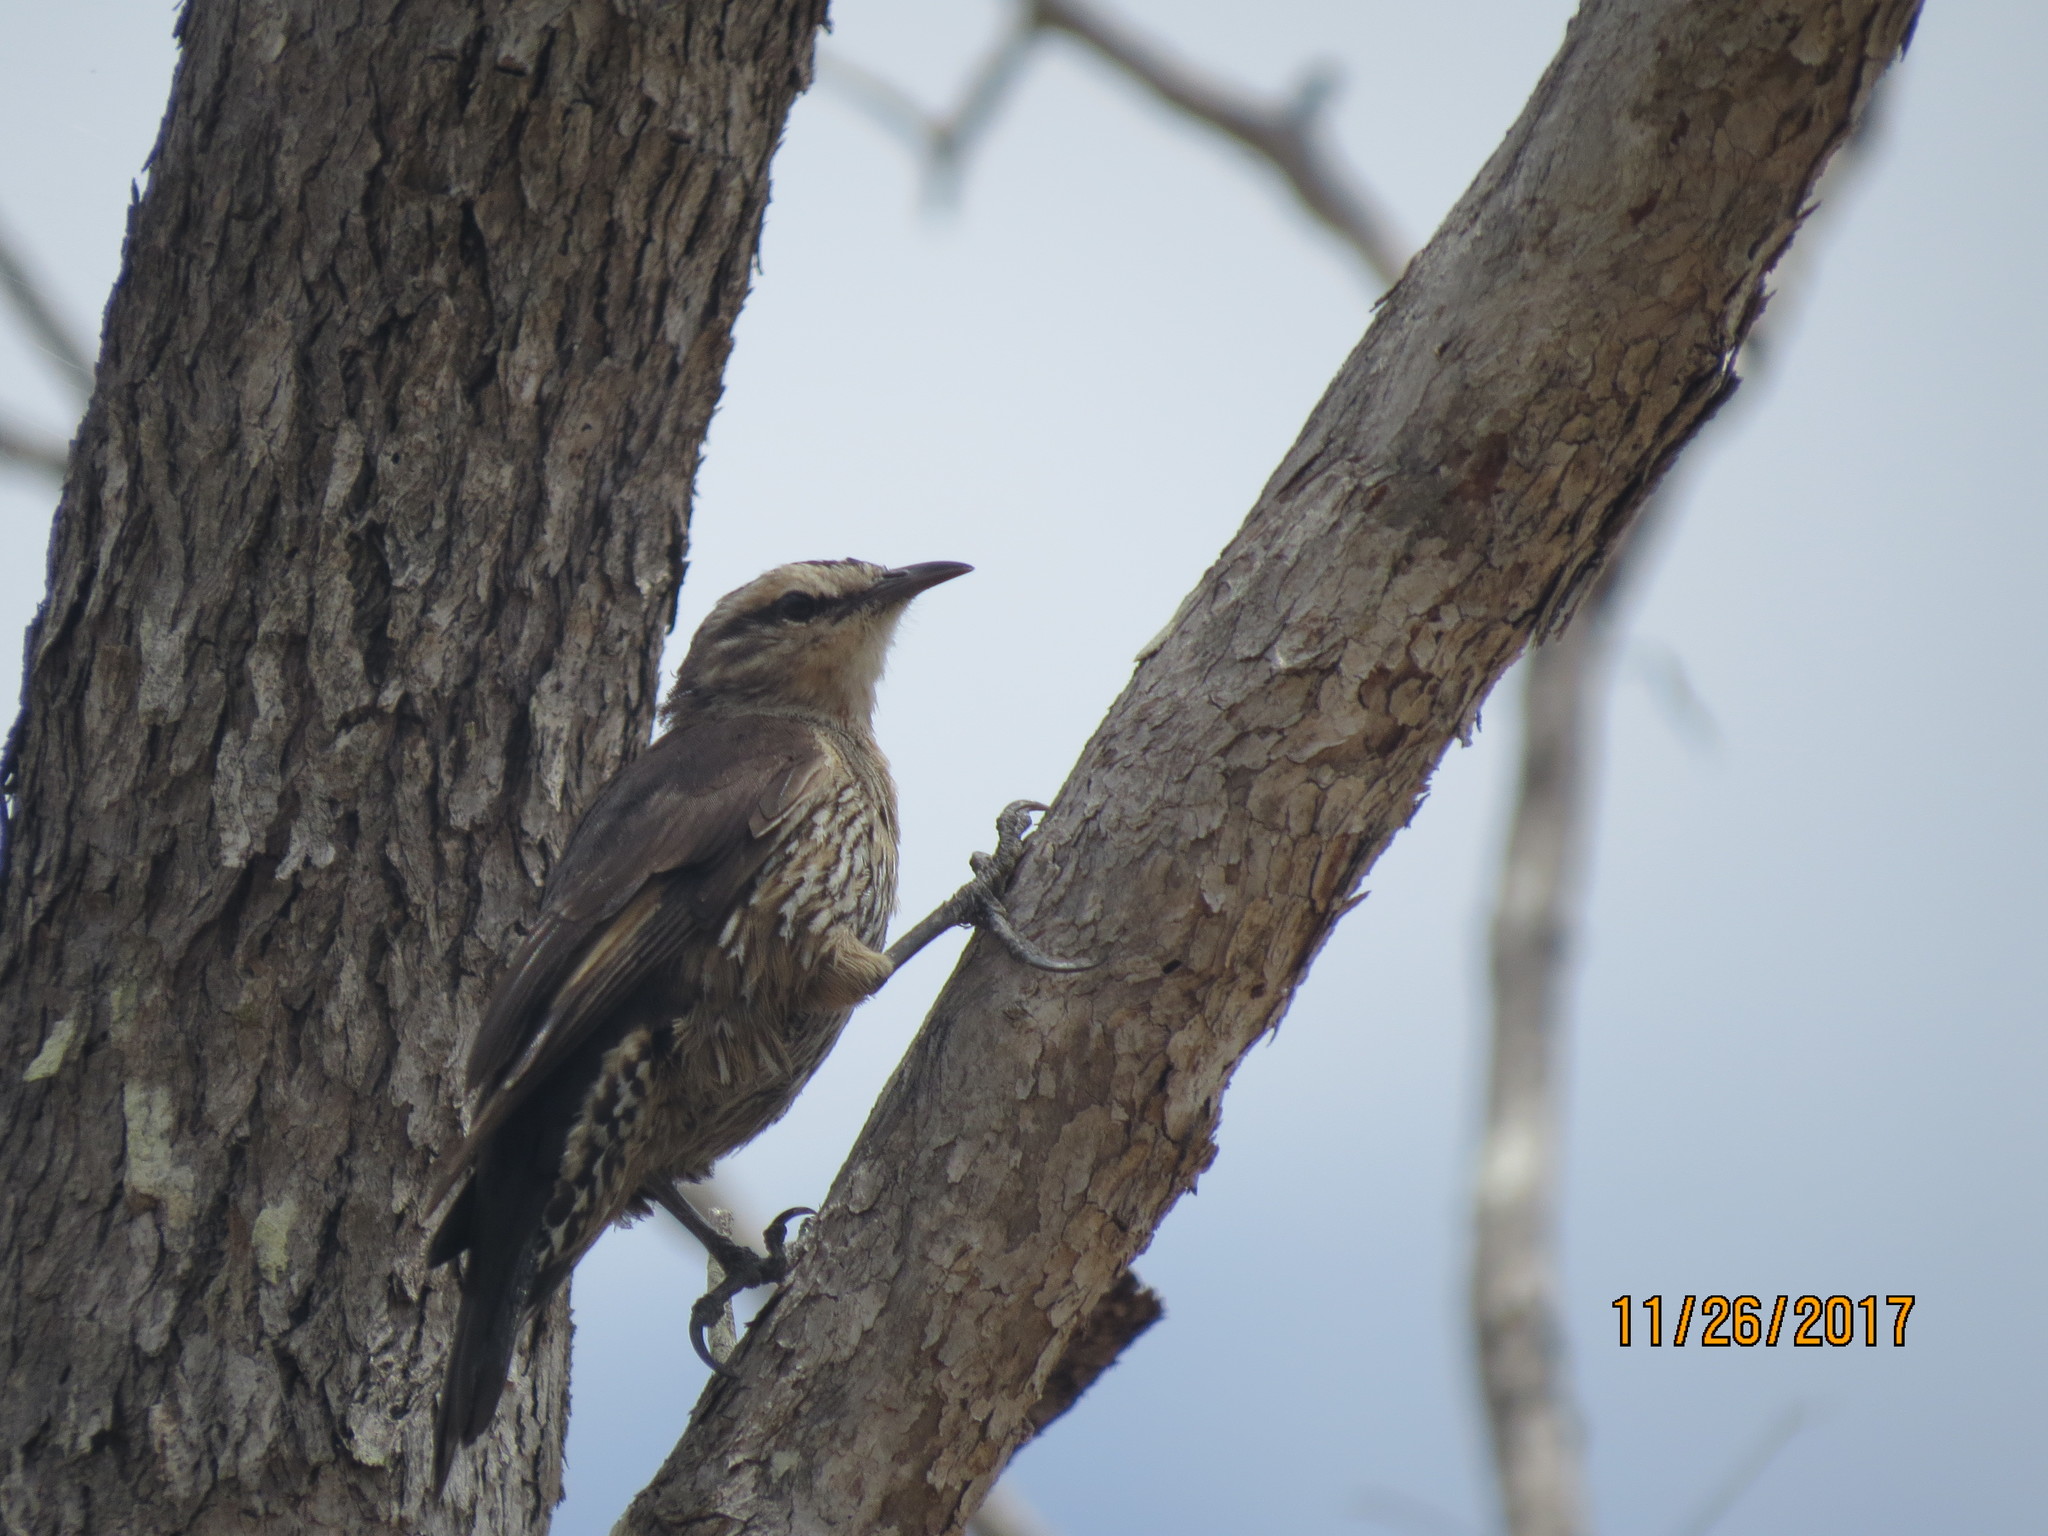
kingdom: Animalia
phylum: Chordata
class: Aves
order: Passeriformes
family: Climacteridae
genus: Climacteris
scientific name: Climacteris picumnus
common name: Brown treecreeper
